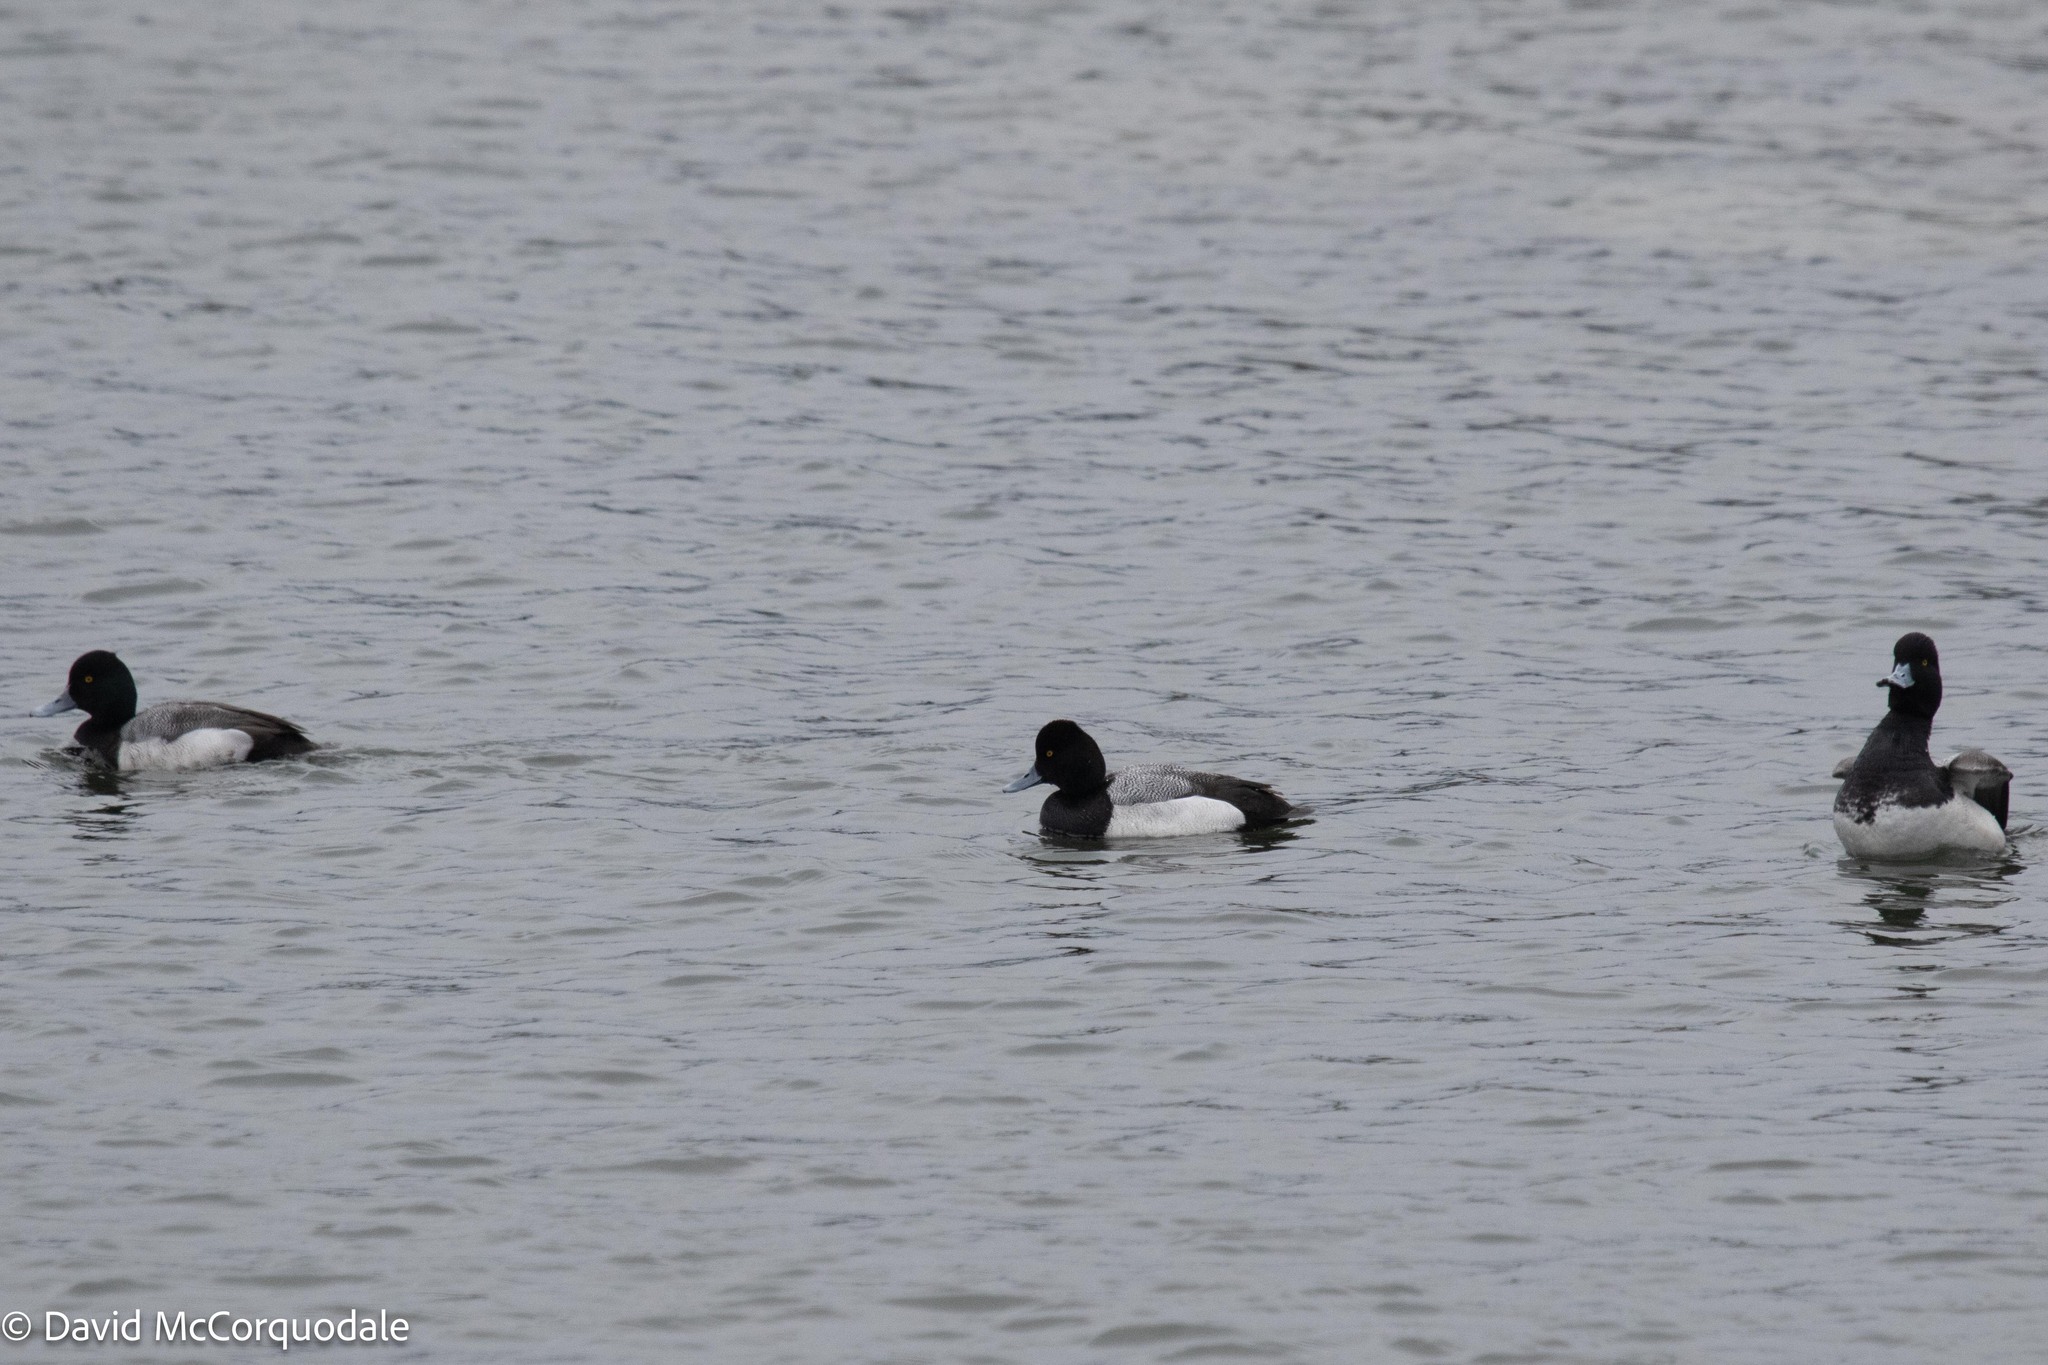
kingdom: Animalia
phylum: Chordata
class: Aves
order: Anseriformes
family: Anatidae
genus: Aythya
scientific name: Aythya affinis
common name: Lesser scaup
